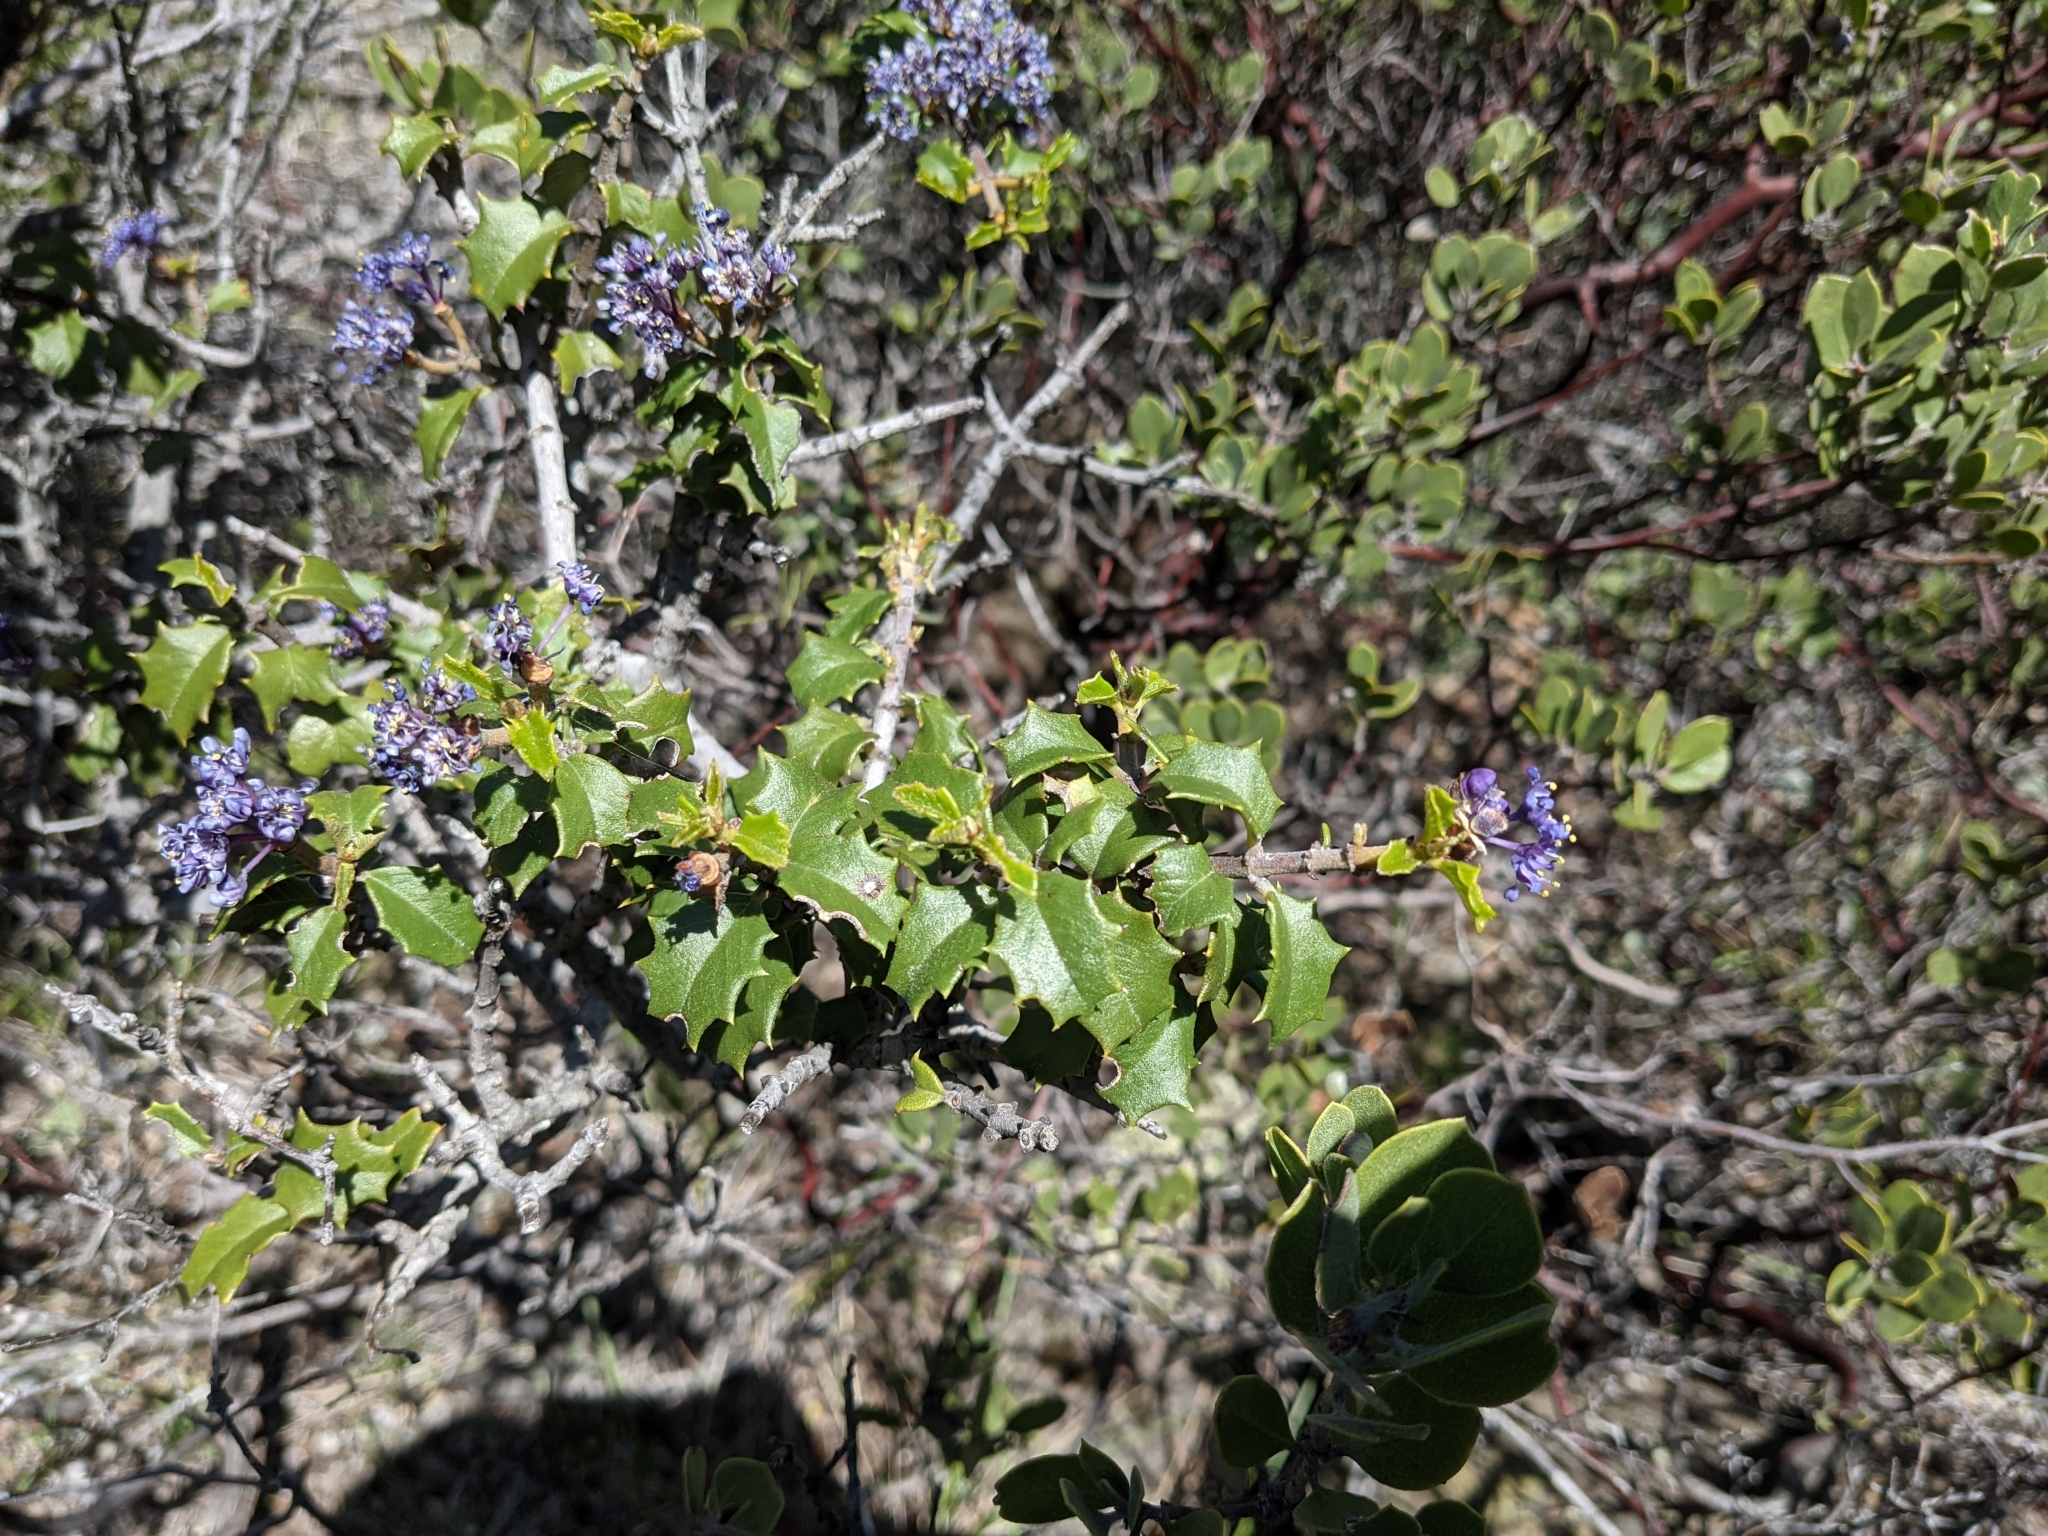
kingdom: Plantae
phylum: Tracheophyta
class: Magnoliopsida
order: Rosales
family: Rhamnaceae
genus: Ceanothus
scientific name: Ceanothus jepsonii
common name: Muskbrush
